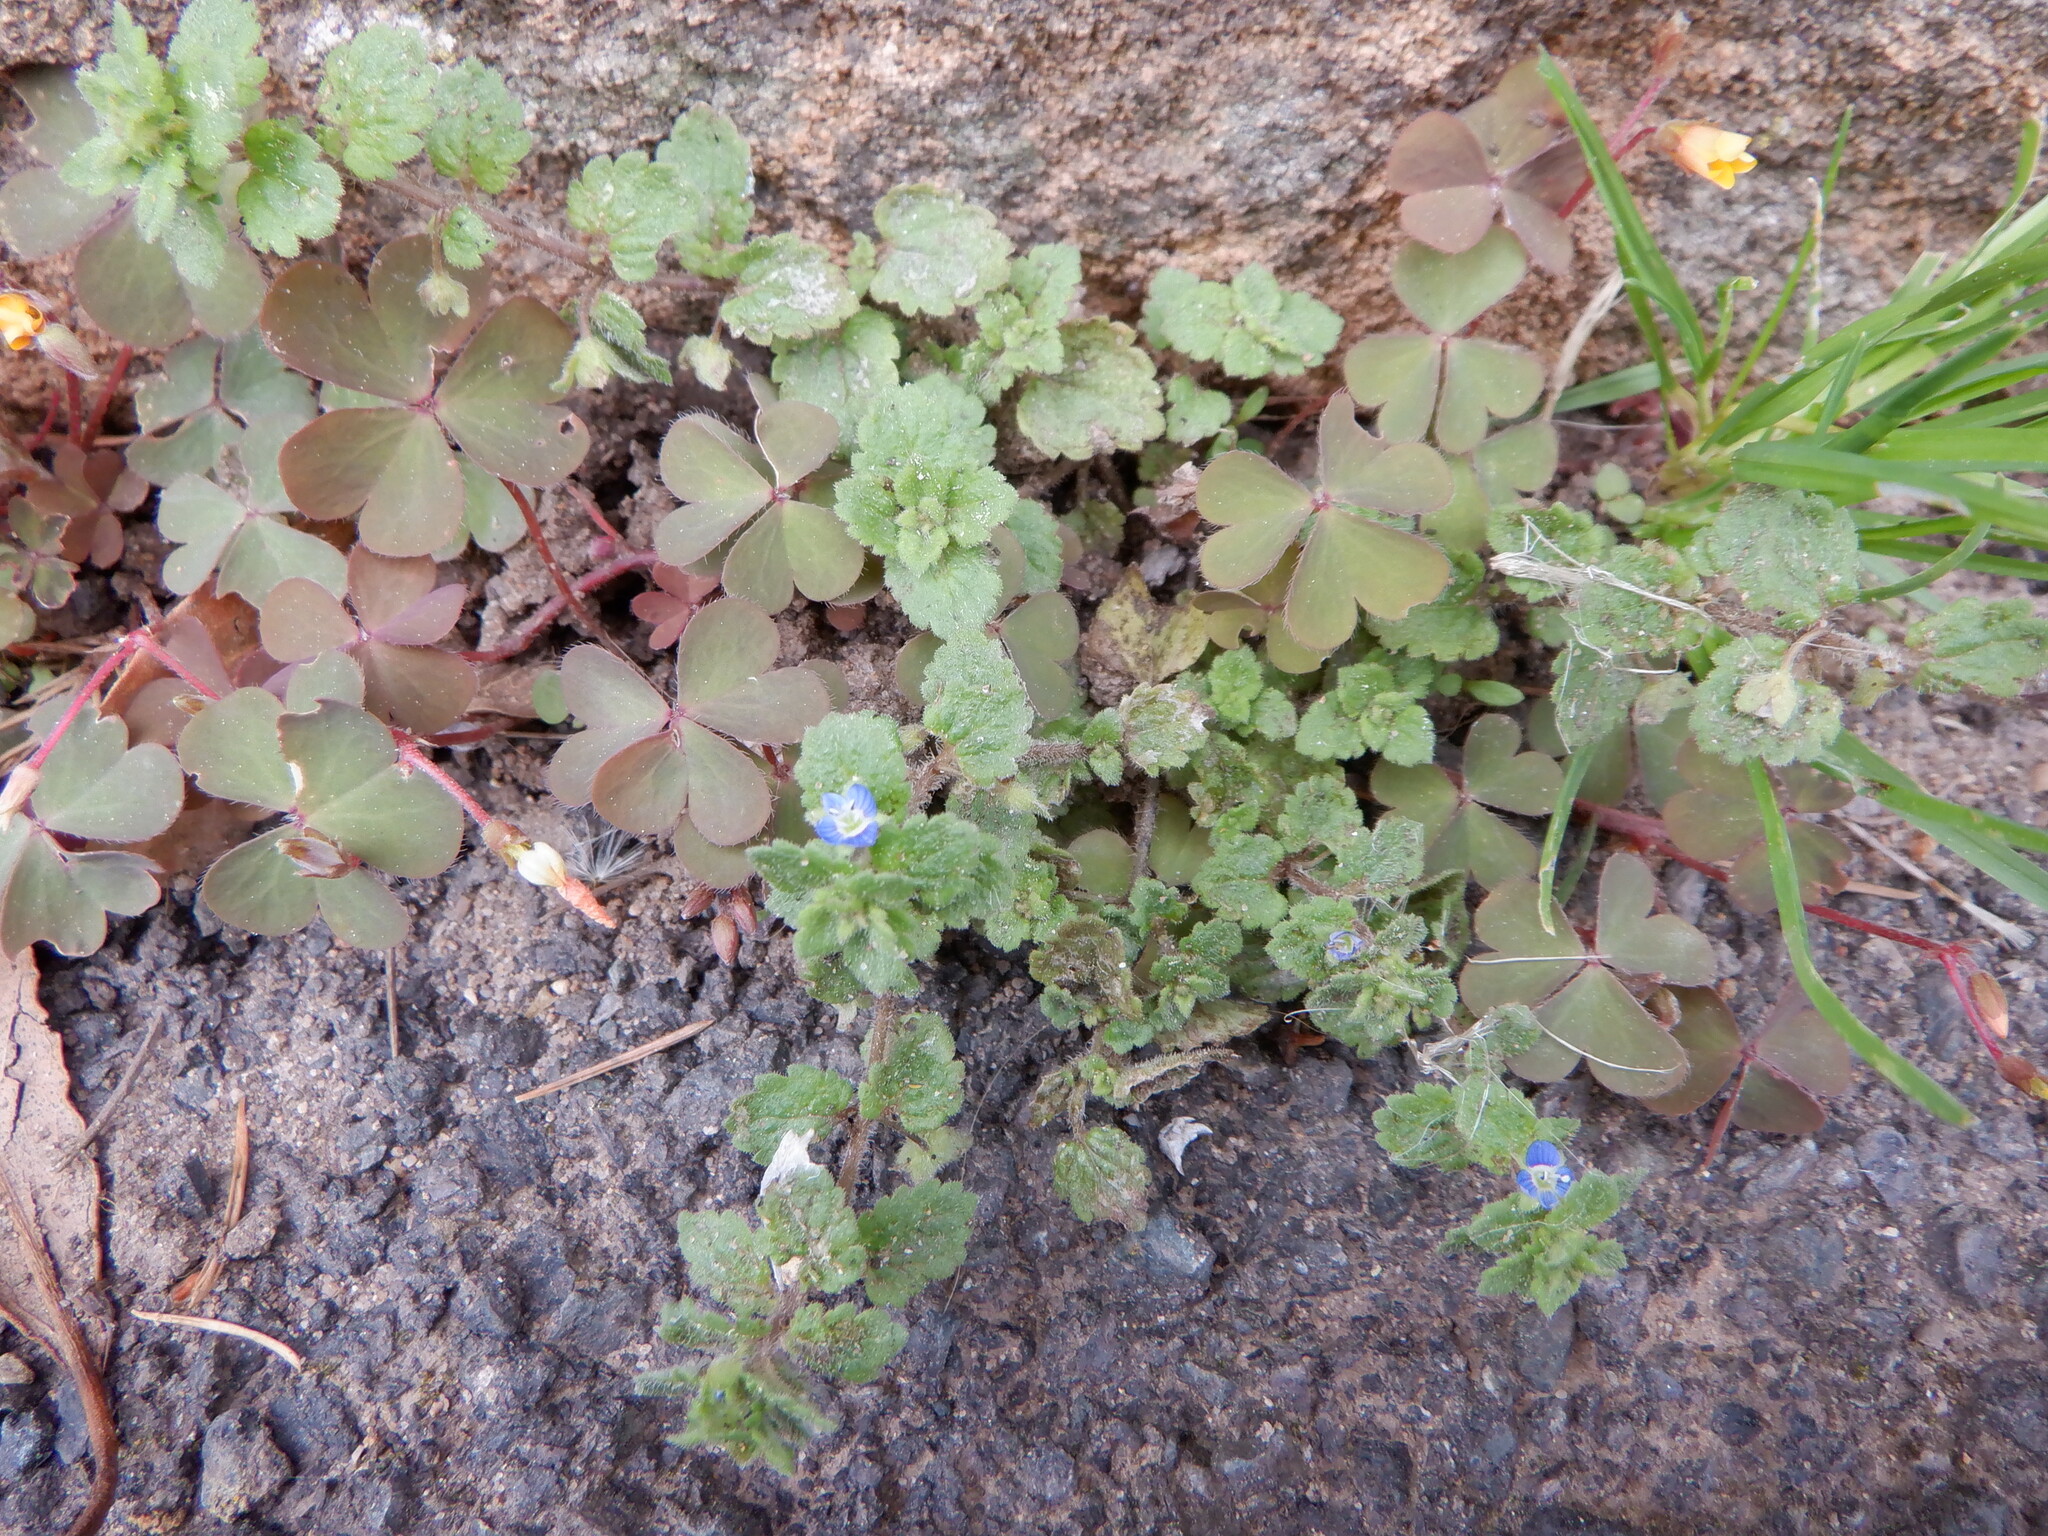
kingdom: Plantae
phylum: Tracheophyta
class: Magnoliopsida
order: Lamiales
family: Plantaginaceae
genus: Veronica
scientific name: Veronica polita
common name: Grey field-speedwell
